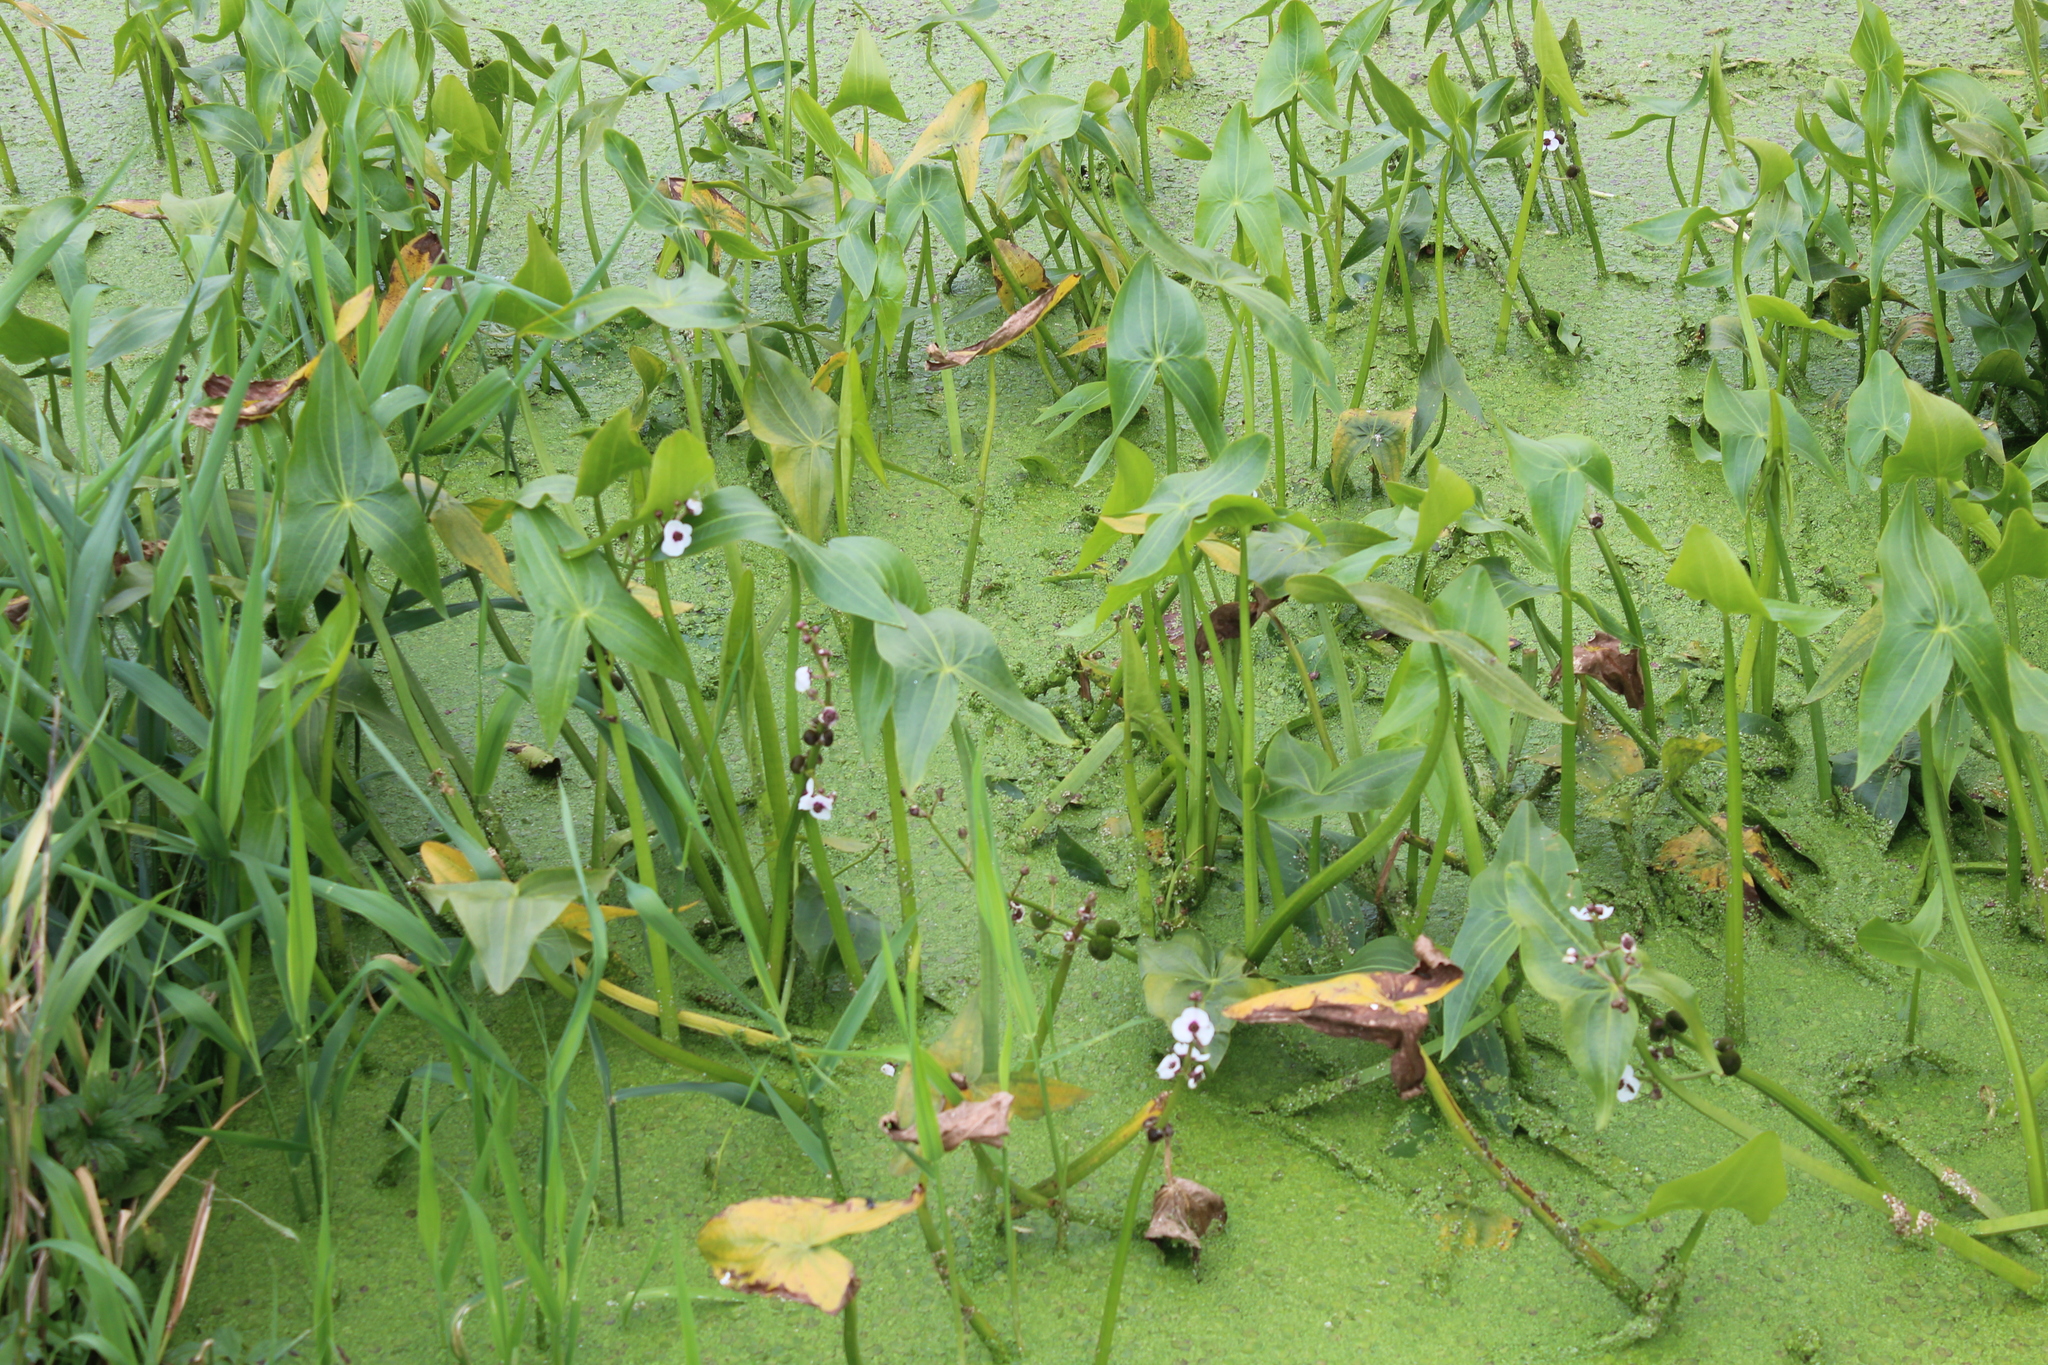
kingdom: Plantae
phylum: Tracheophyta
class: Liliopsida
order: Alismatales
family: Alismataceae
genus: Sagittaria
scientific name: Sagittaria sagittifolia
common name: Arrowhead
